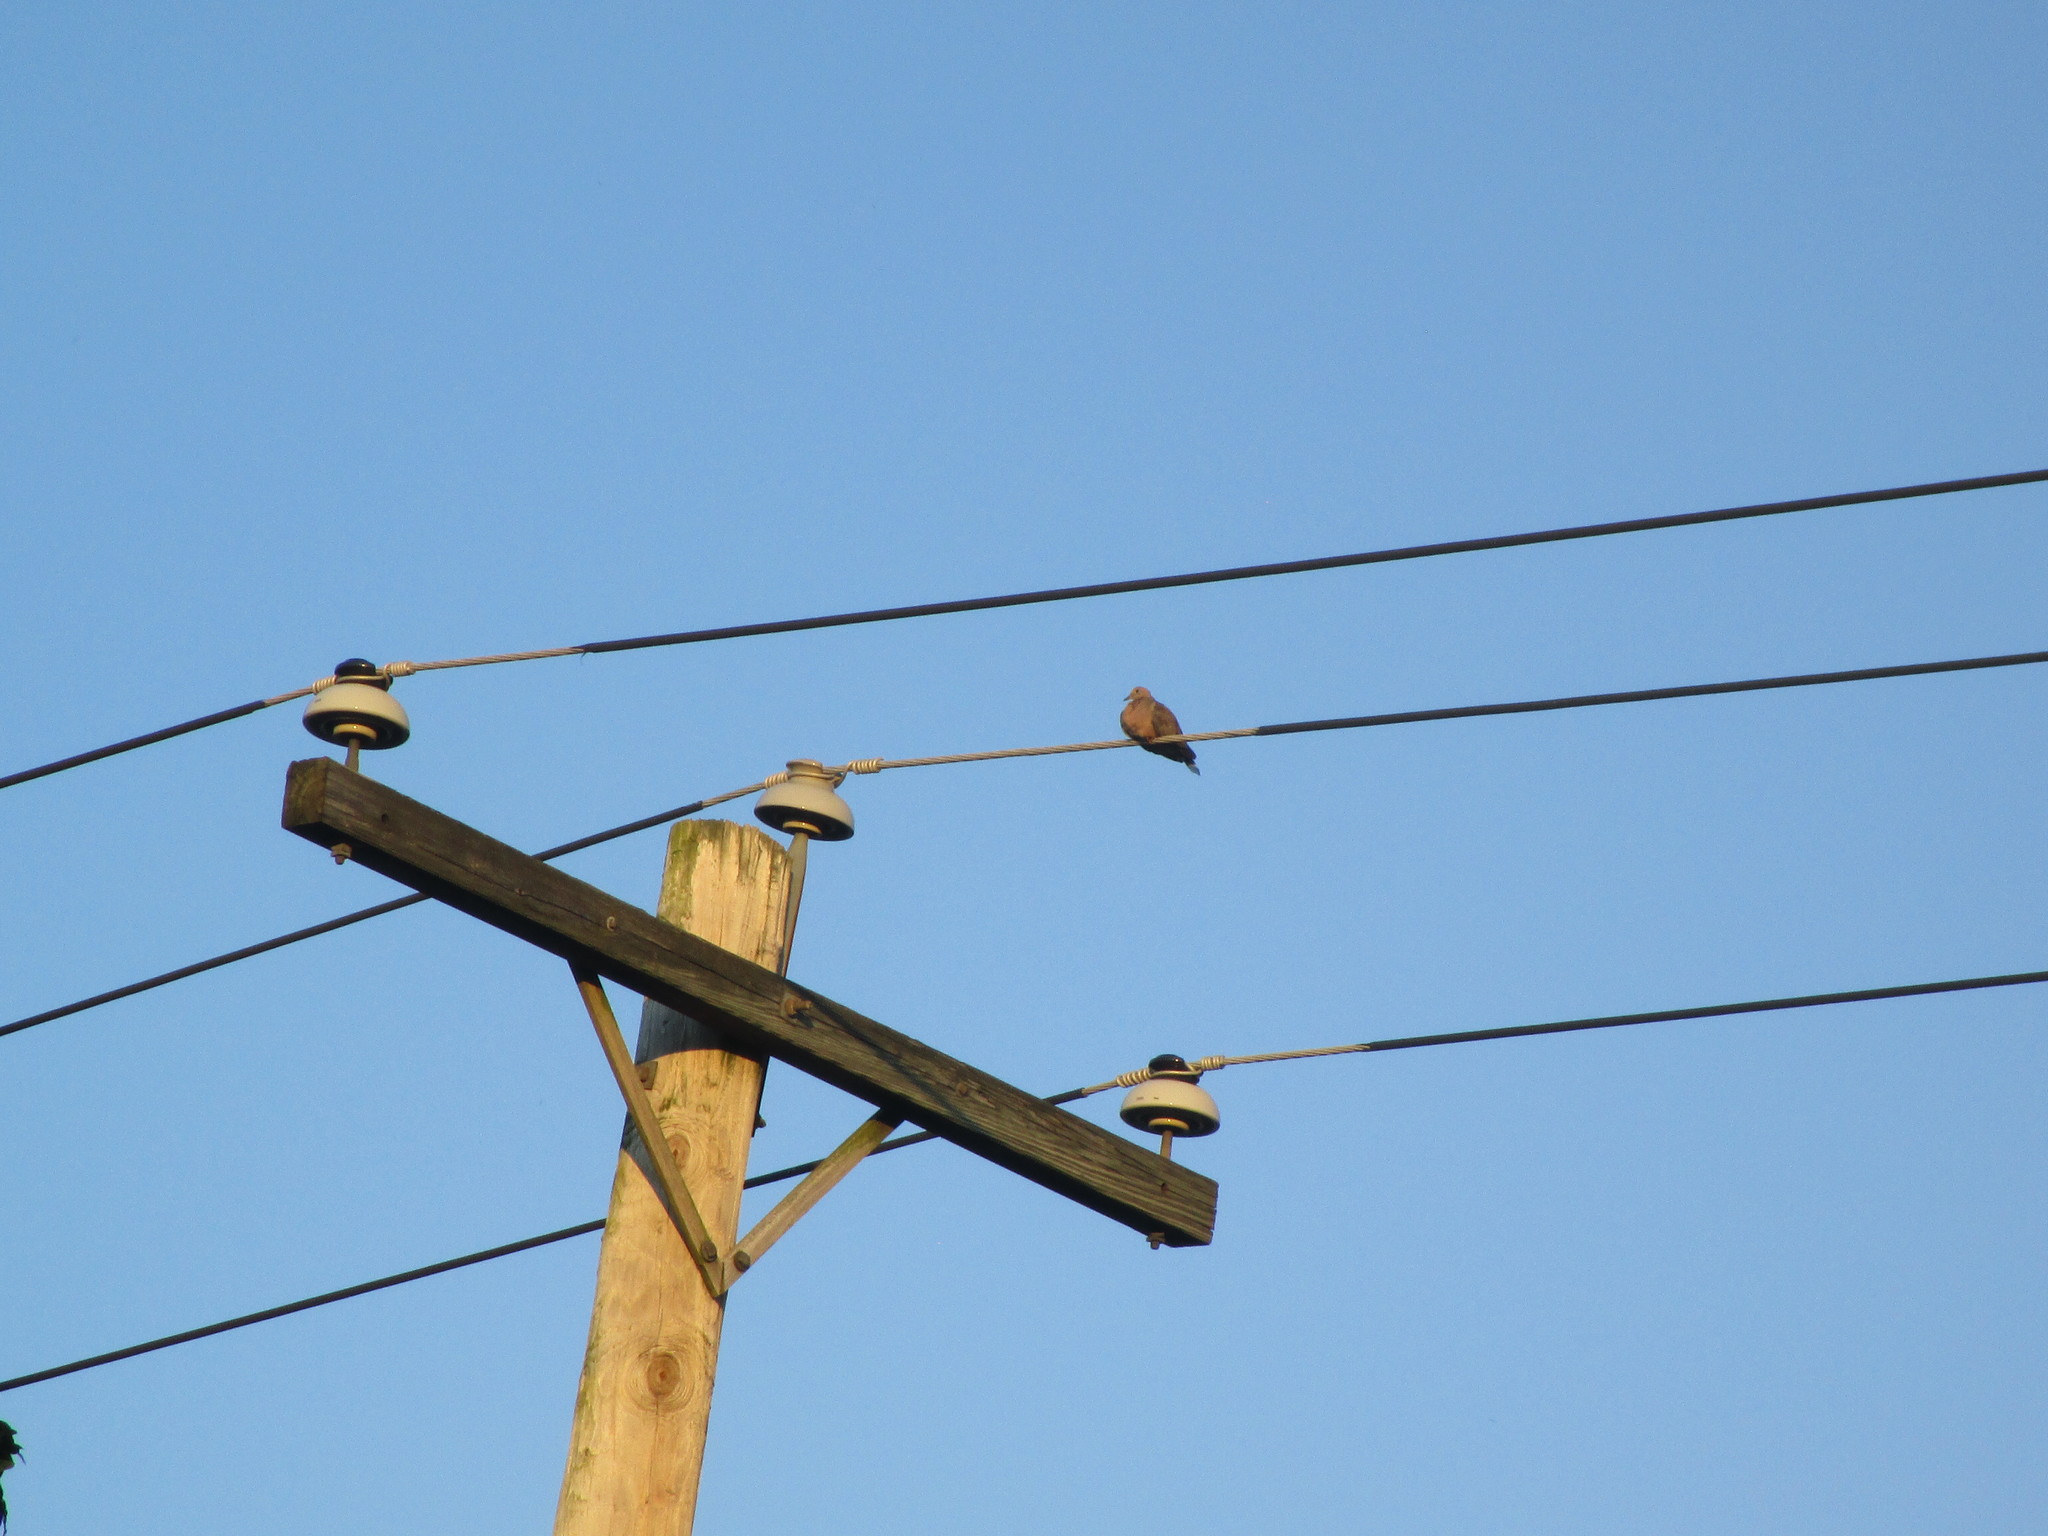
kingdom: Animalia
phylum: Chordata
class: Aves
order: Columbiformes
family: Columbidae
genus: Zenaida
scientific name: Zenaida macroura
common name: Mourning dove
